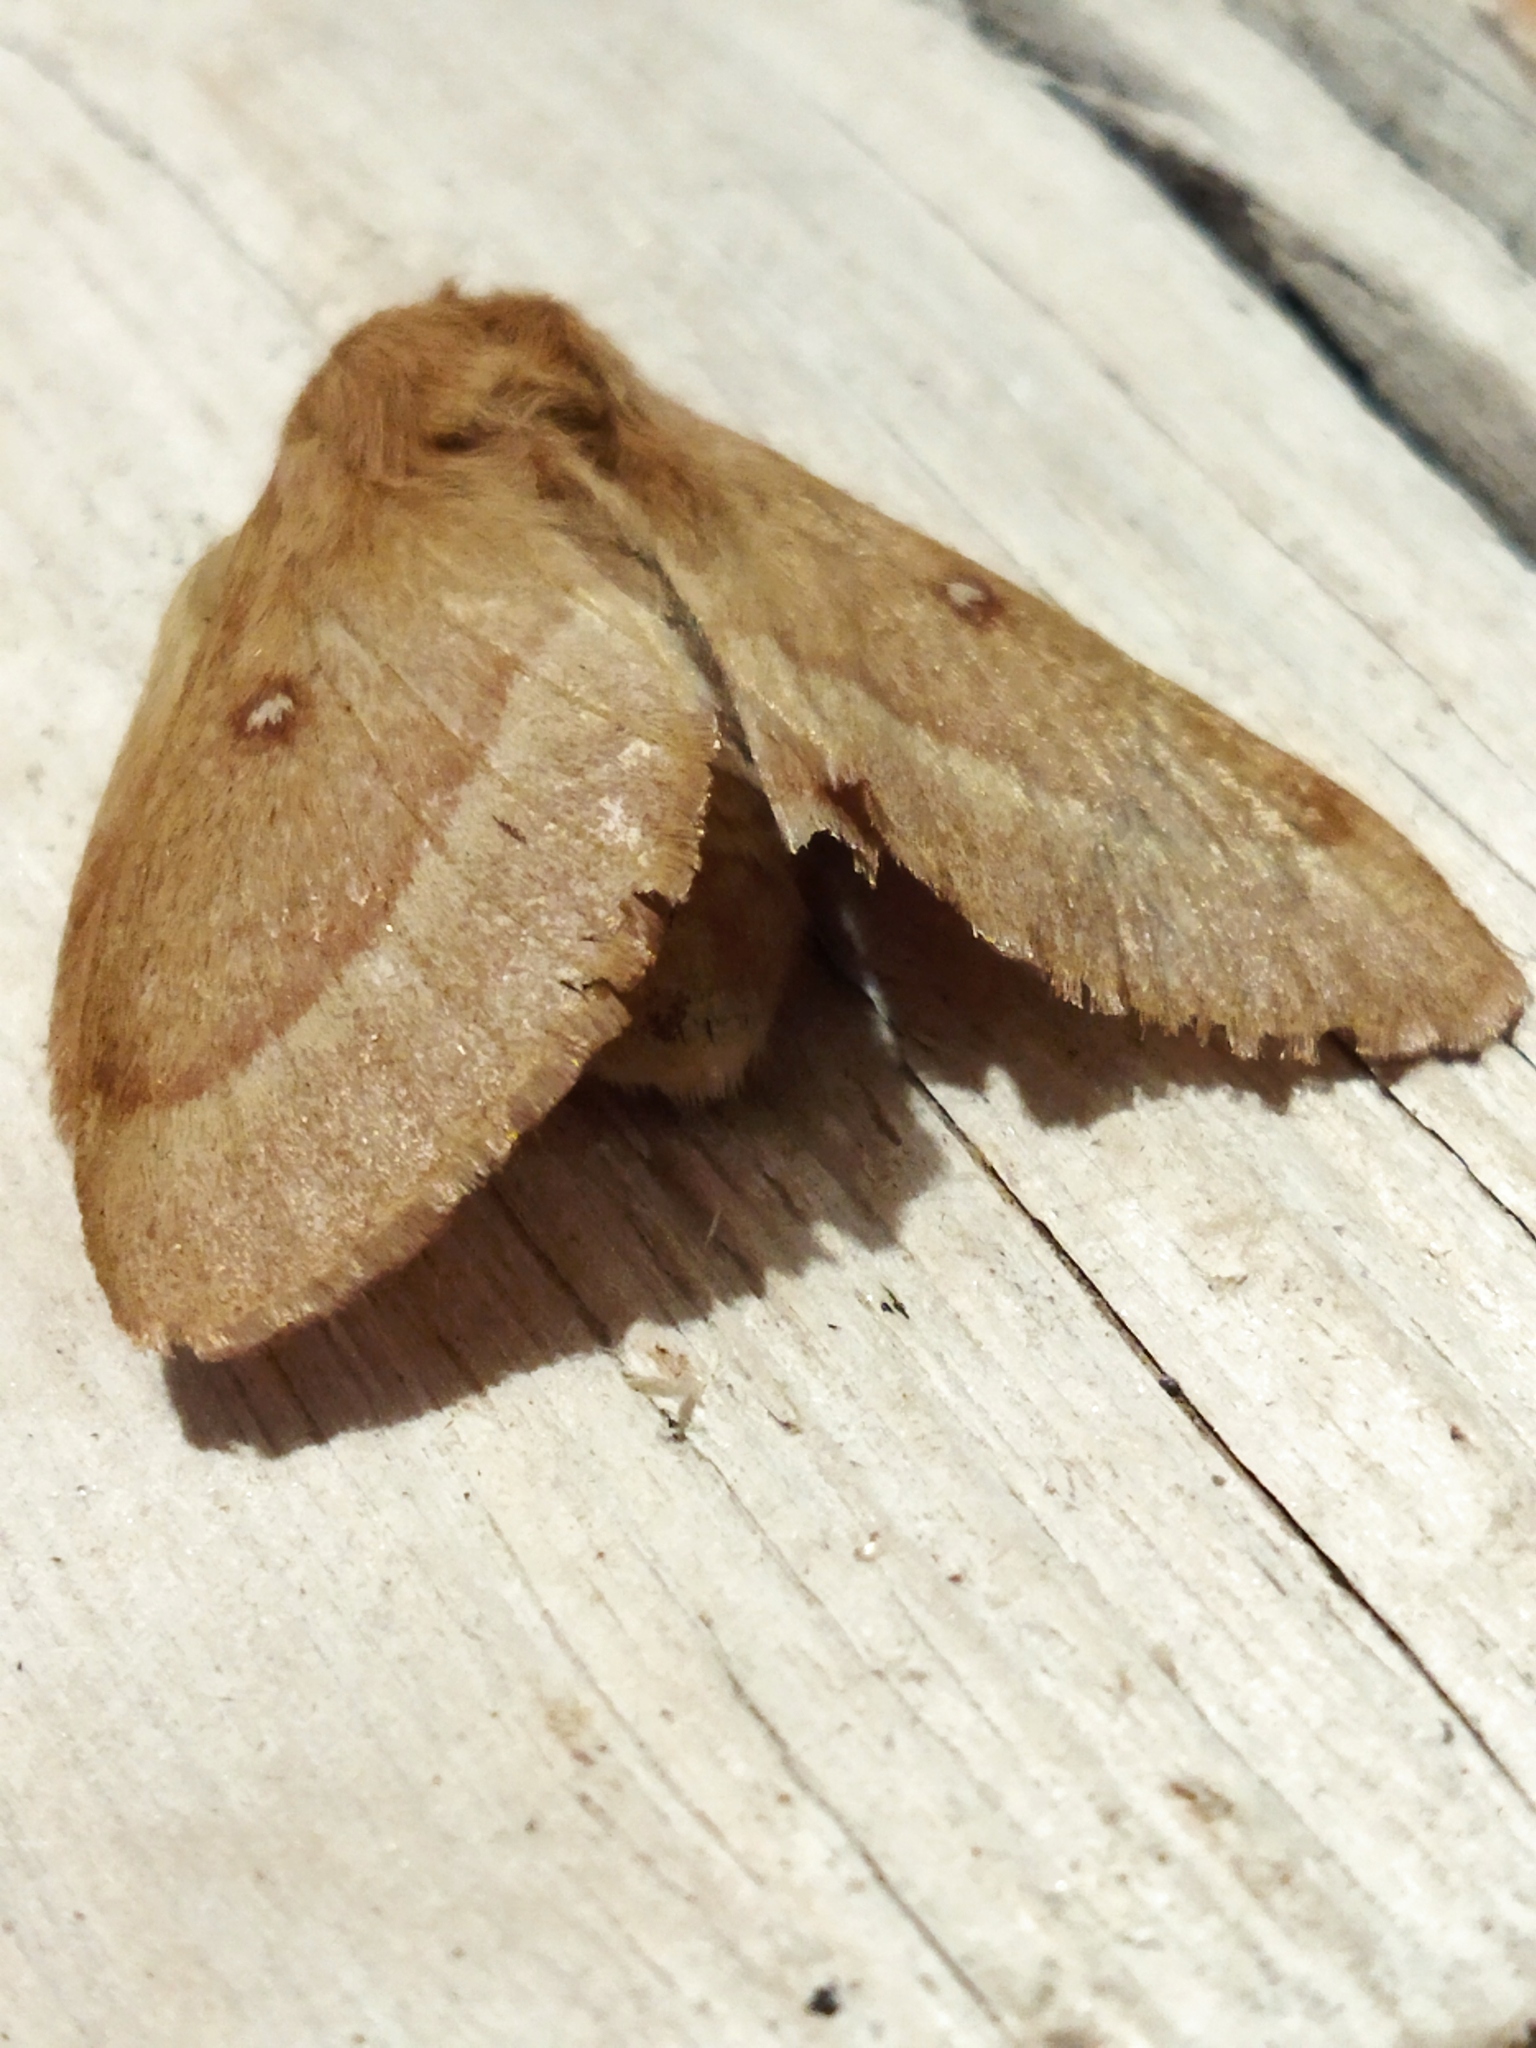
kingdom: Animalia
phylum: Arthropoda
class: Insecta
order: Lepidoptera
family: Lasiocampidae
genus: Lasiocampa
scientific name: Lasiocampa trifolii
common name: Grass eggar
